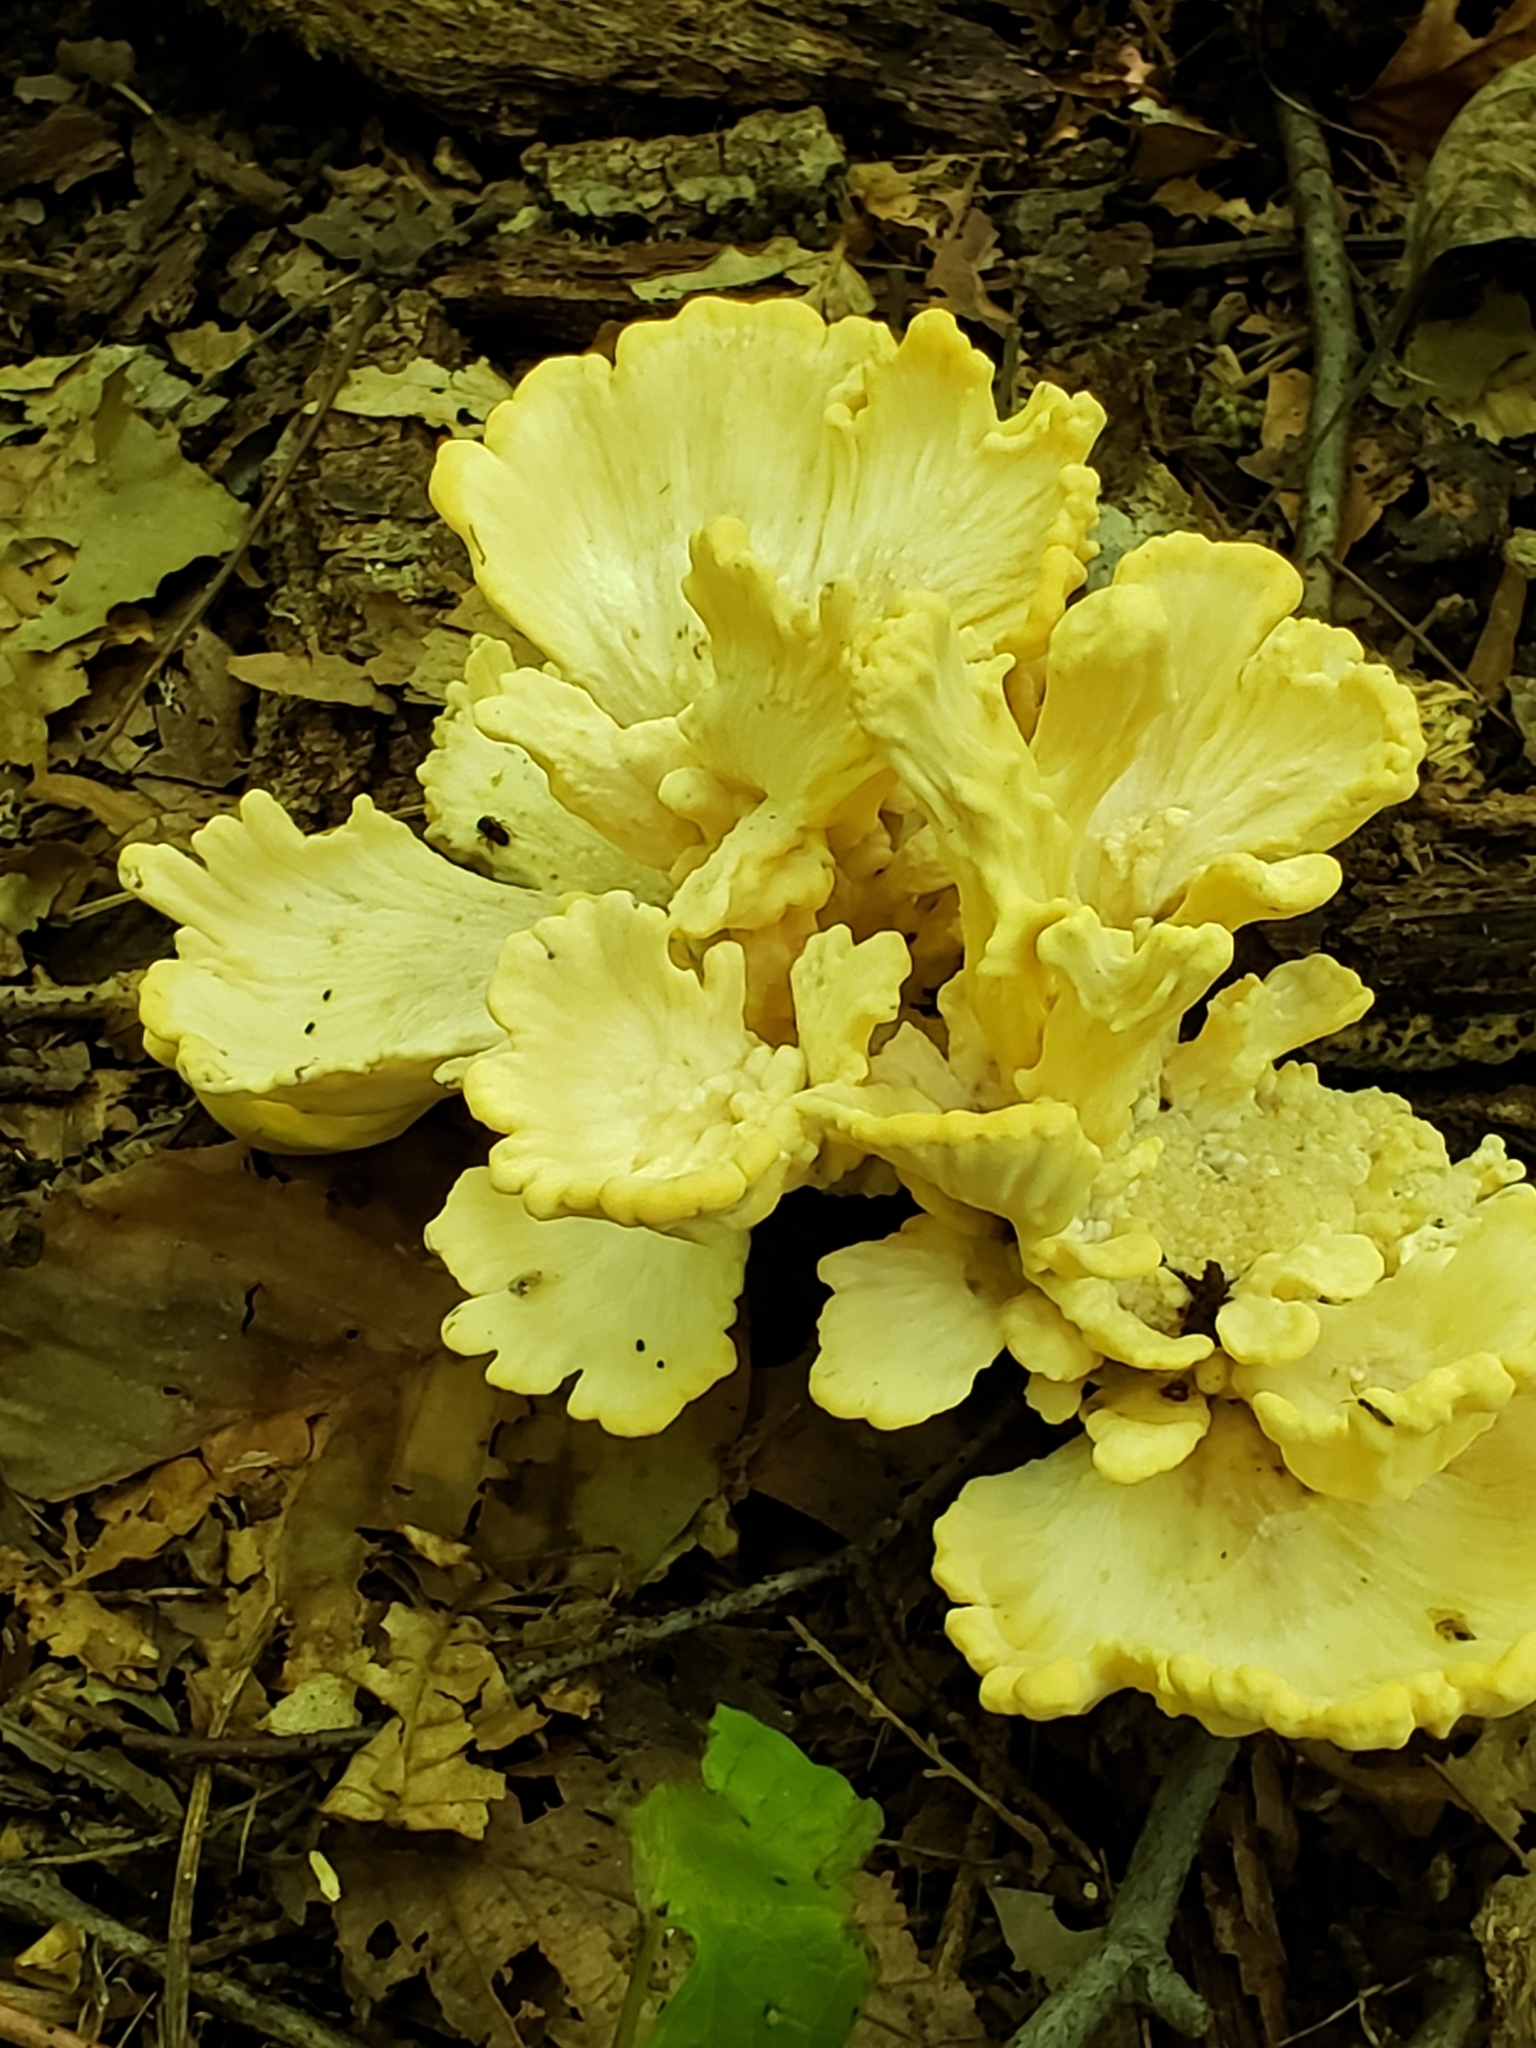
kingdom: Fungi
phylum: Basidiomycota
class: Agaricomycetes
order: Polyporales
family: Meripilaceae
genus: Meripilus
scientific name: Meripilus sumstinei
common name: Black-staining polypore
